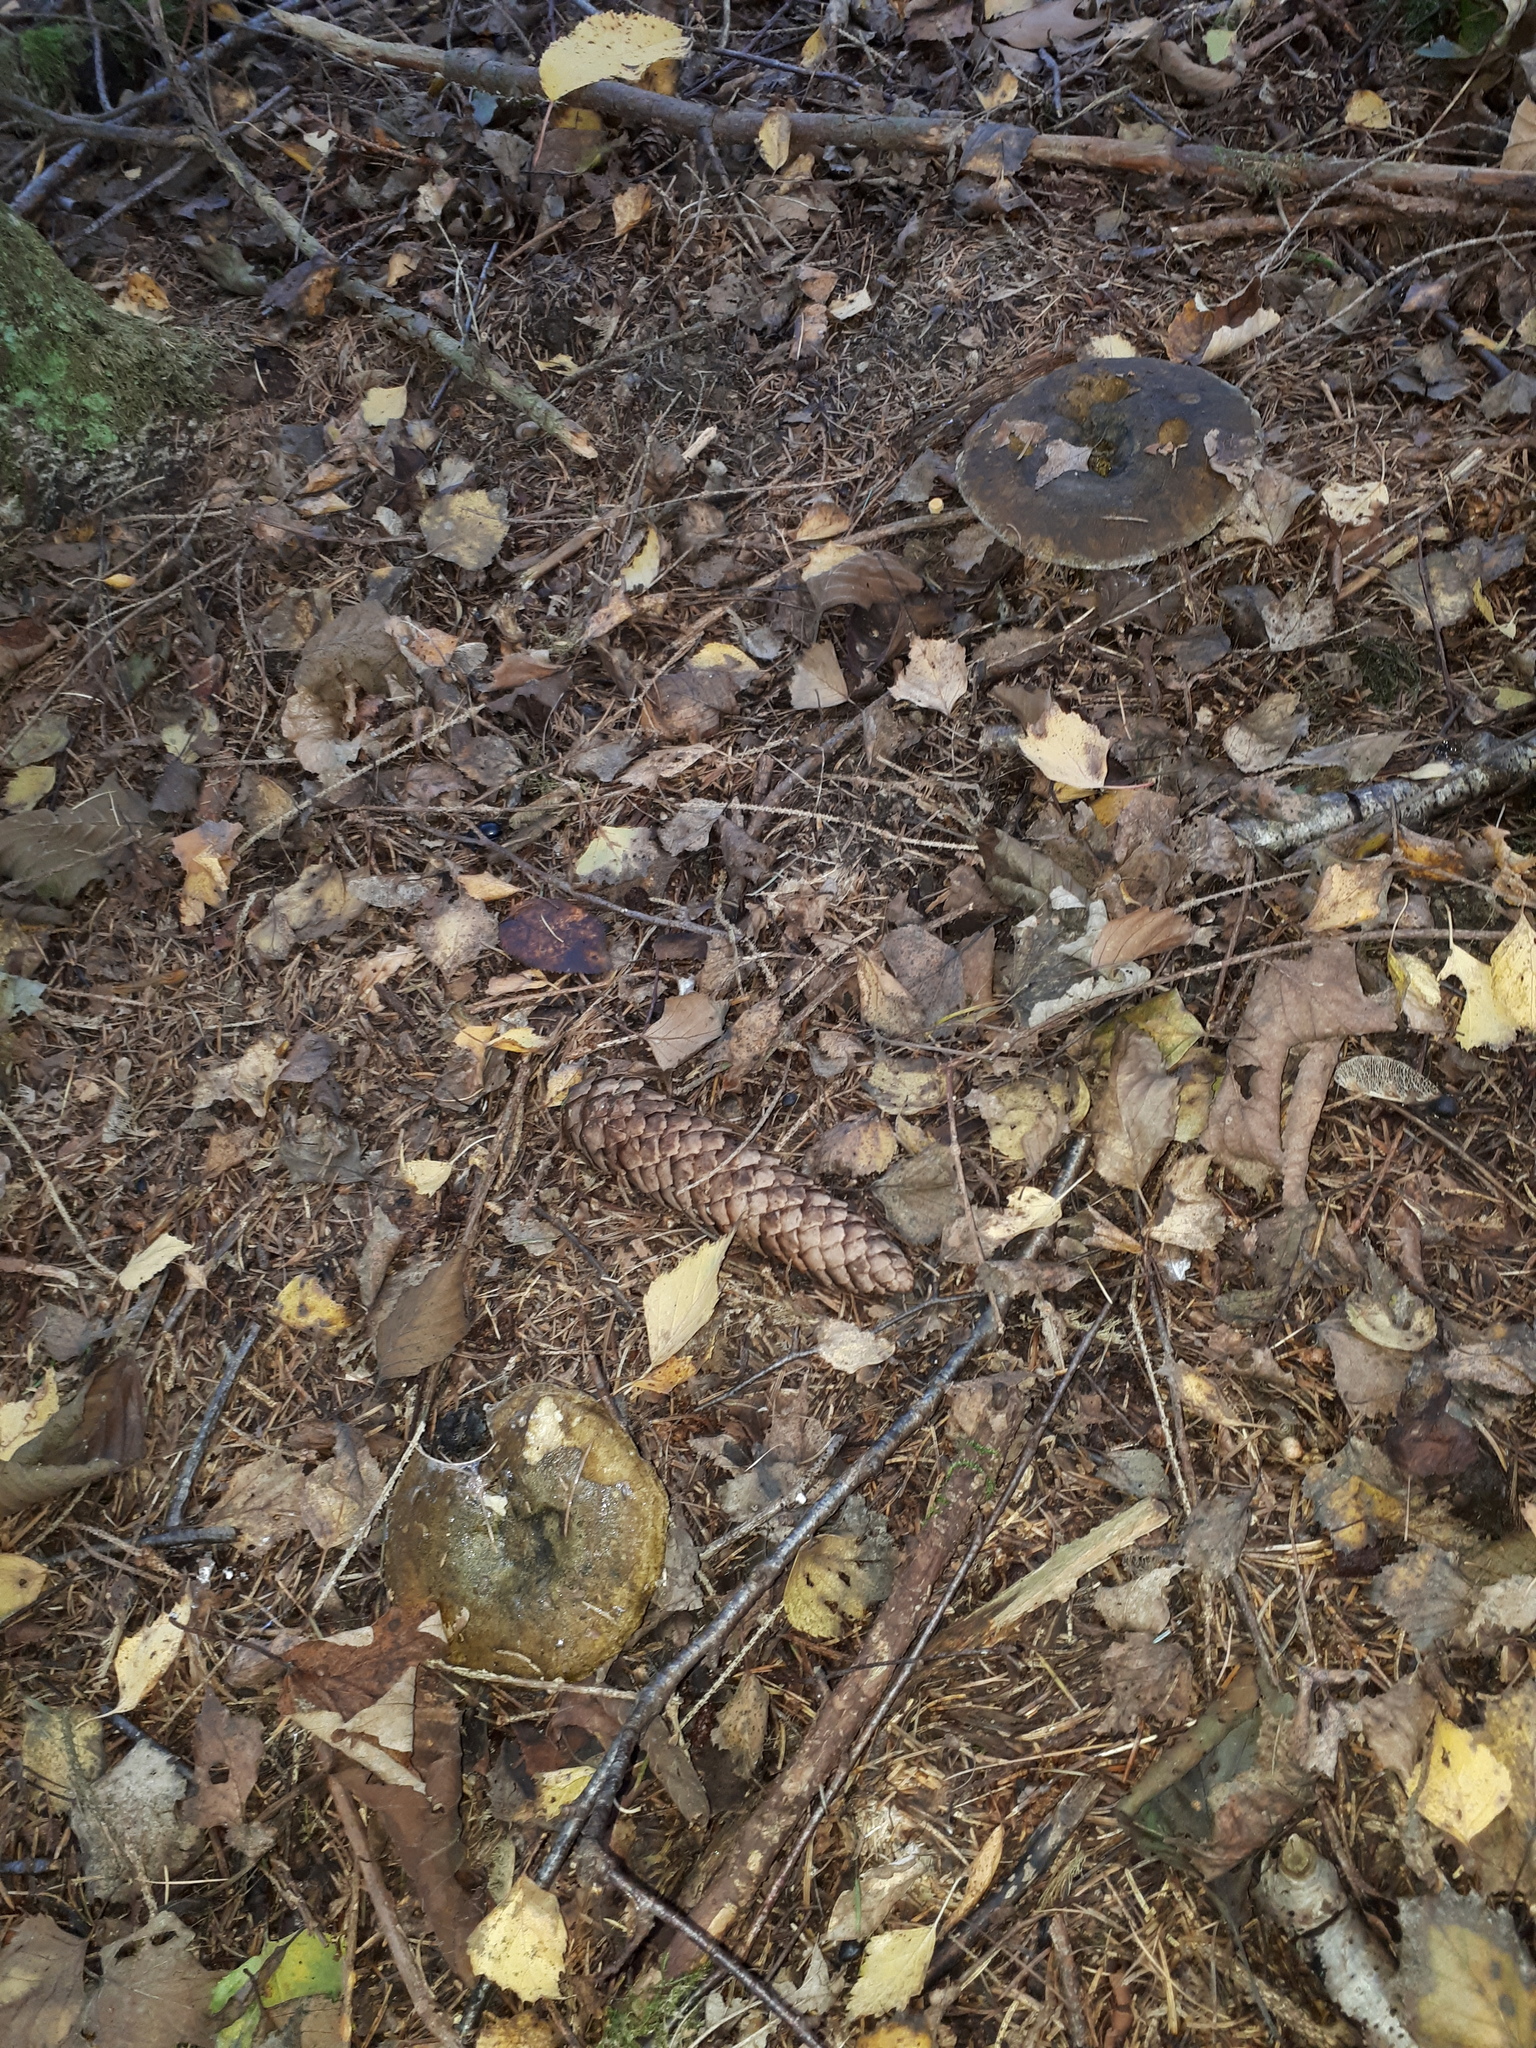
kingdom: Fungi
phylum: Basidiomycota
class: Agaricomycetes
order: Russulales
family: Russulaceae
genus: Lactarius
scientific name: Lactarius turpis
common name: Ugly milk-cap
